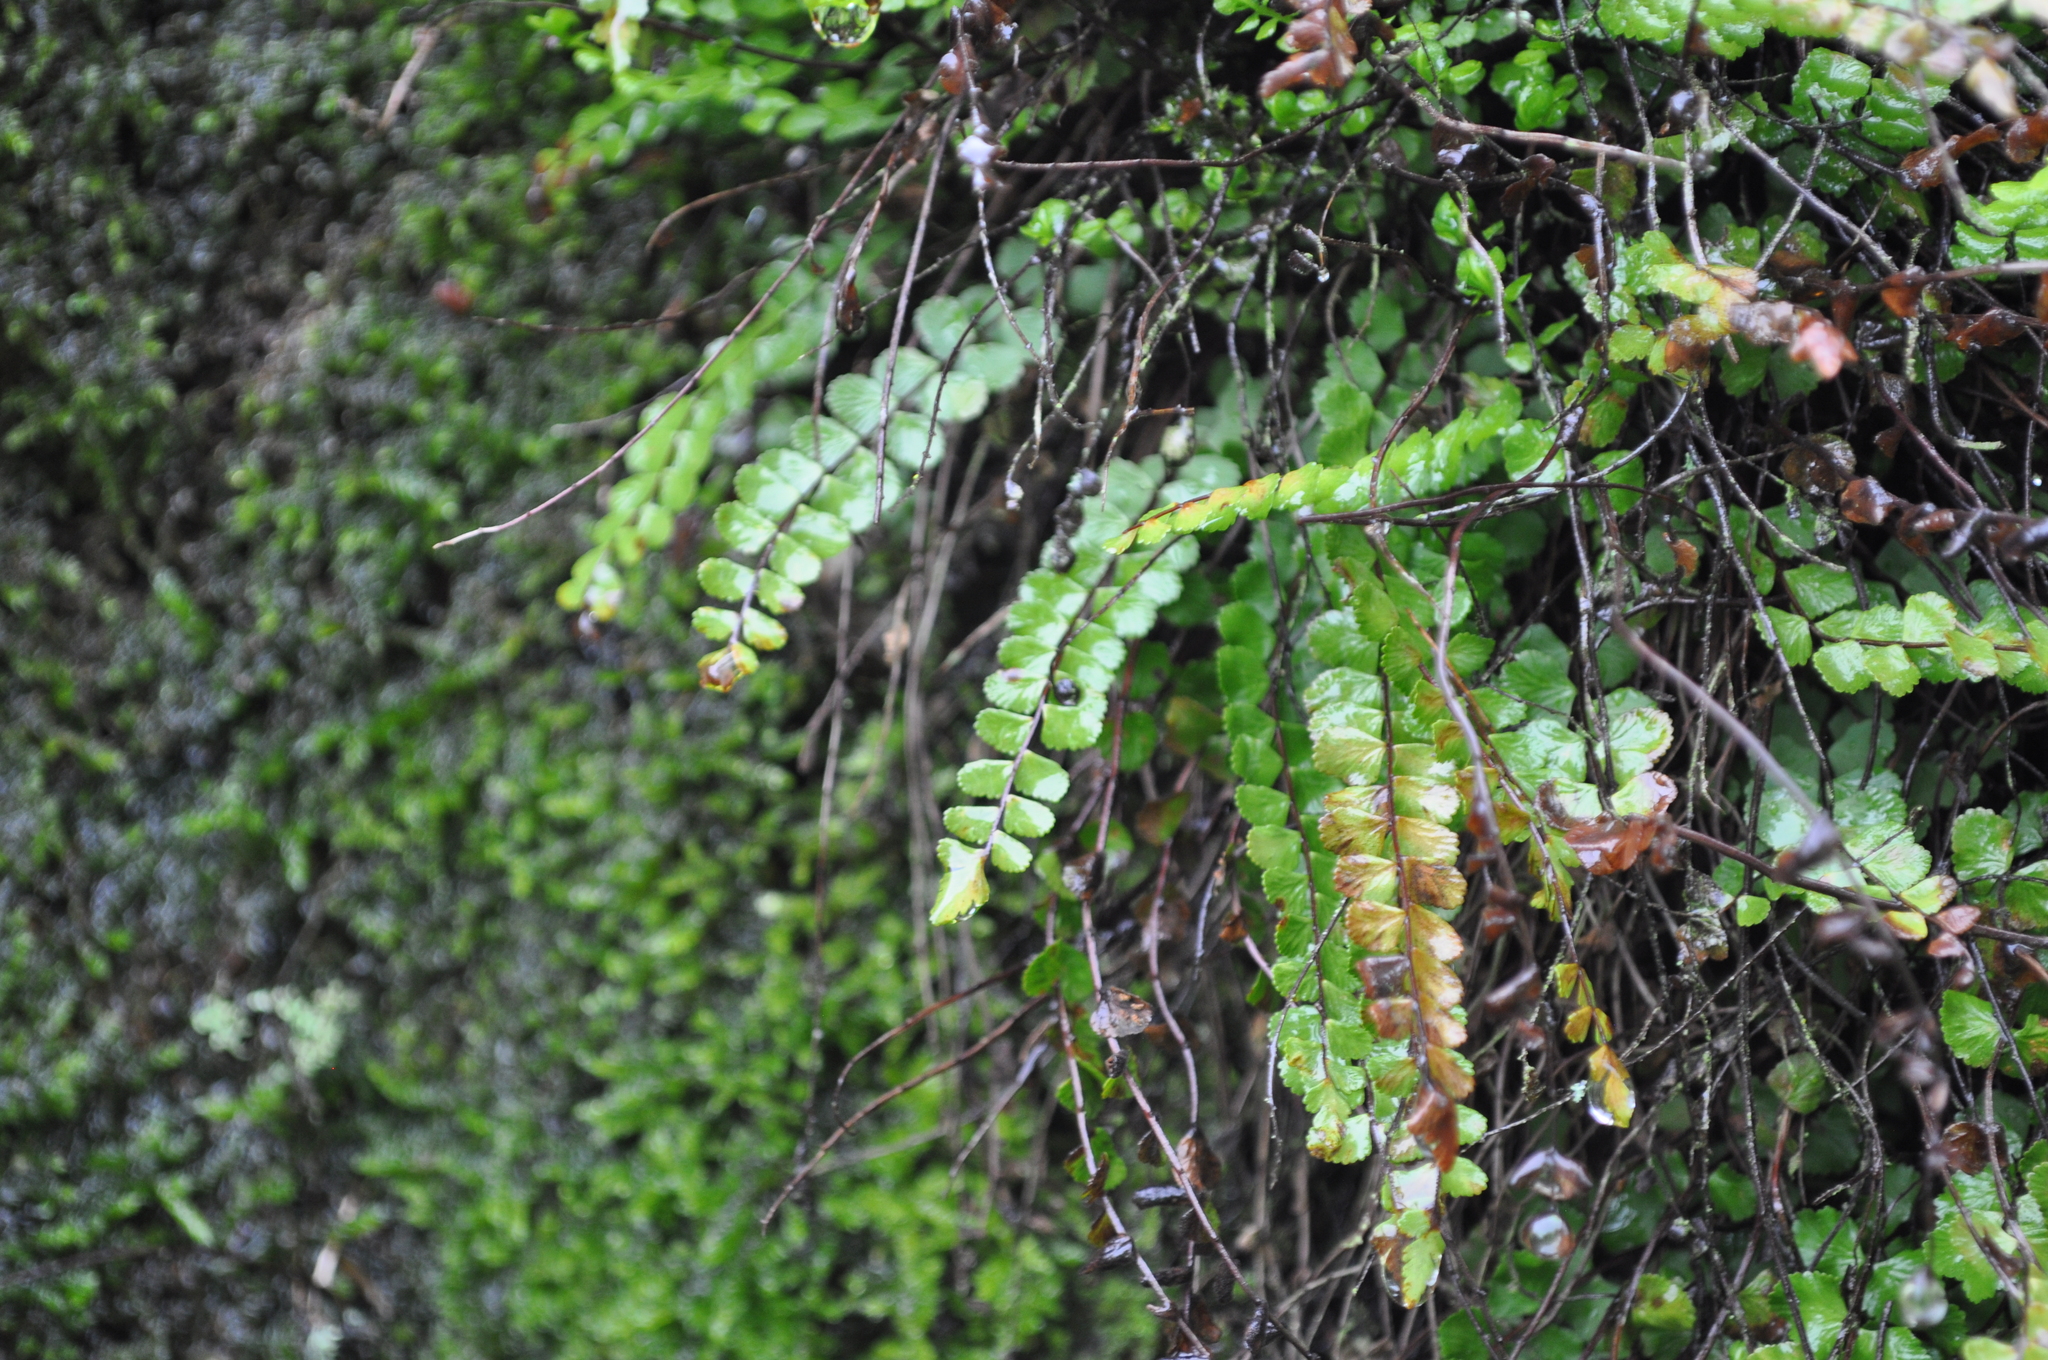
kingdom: Plantae
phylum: Tracheophyta
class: Polypodiopsida
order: Polypodiales
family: Aspleniaceae
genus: Asplenium
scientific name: Asplenium trichomanes
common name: Maidenhair spleenwort
